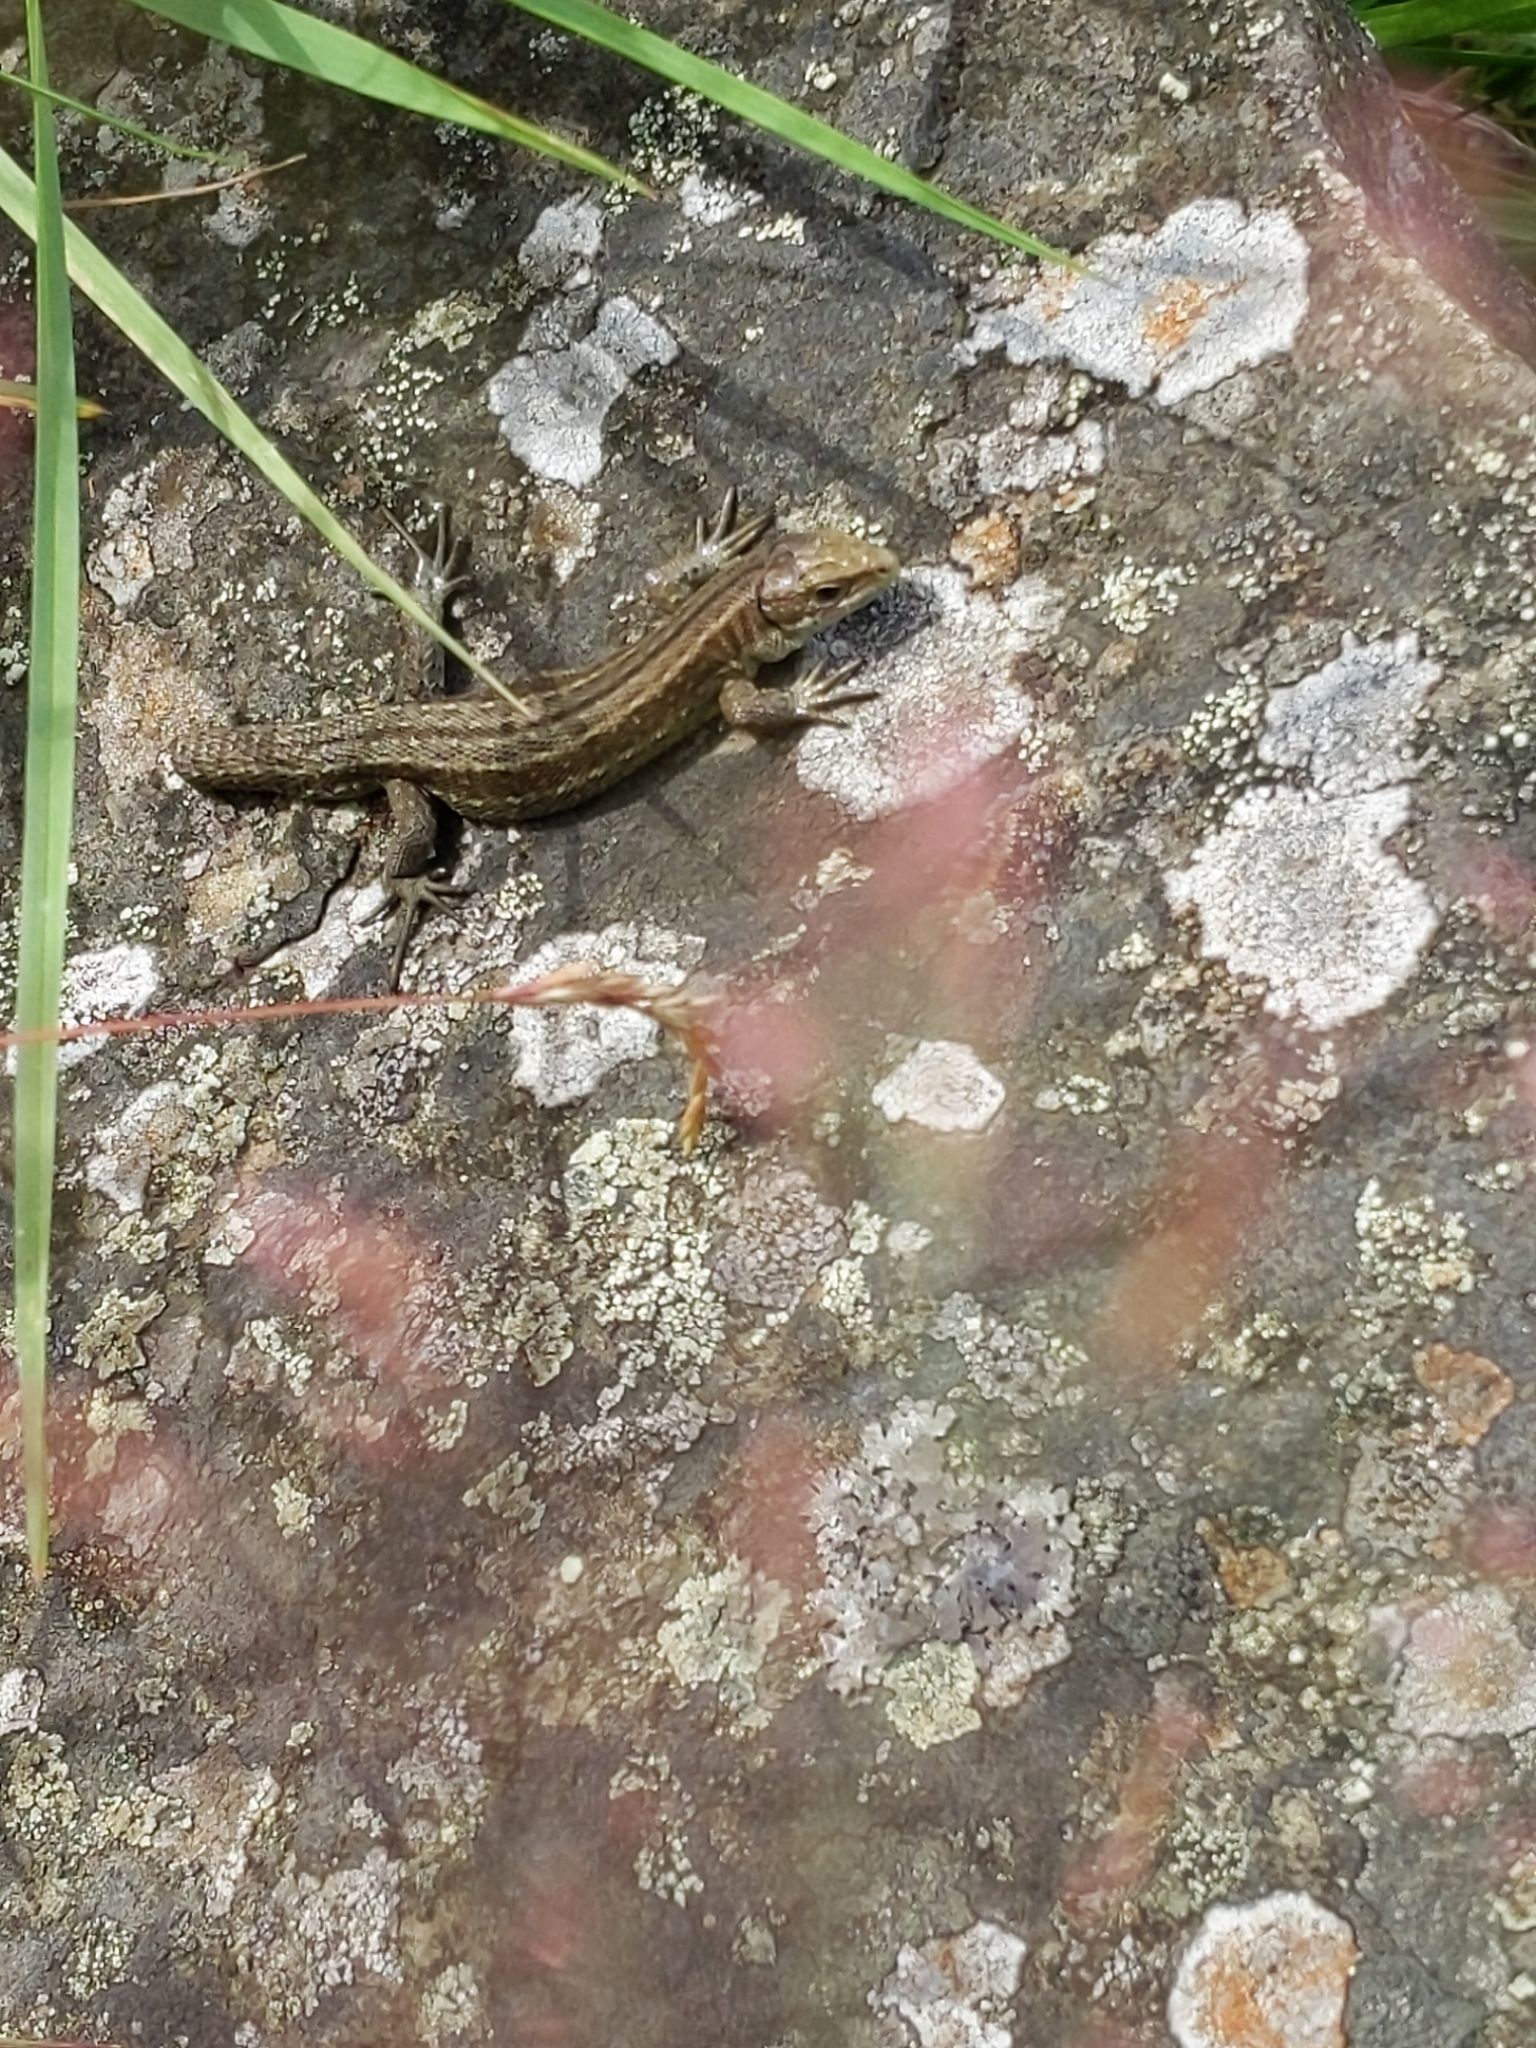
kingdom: Animalia
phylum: Chordata
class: Squamata
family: Lacertidae
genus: Zootoca
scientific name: Zootoca vivipara
